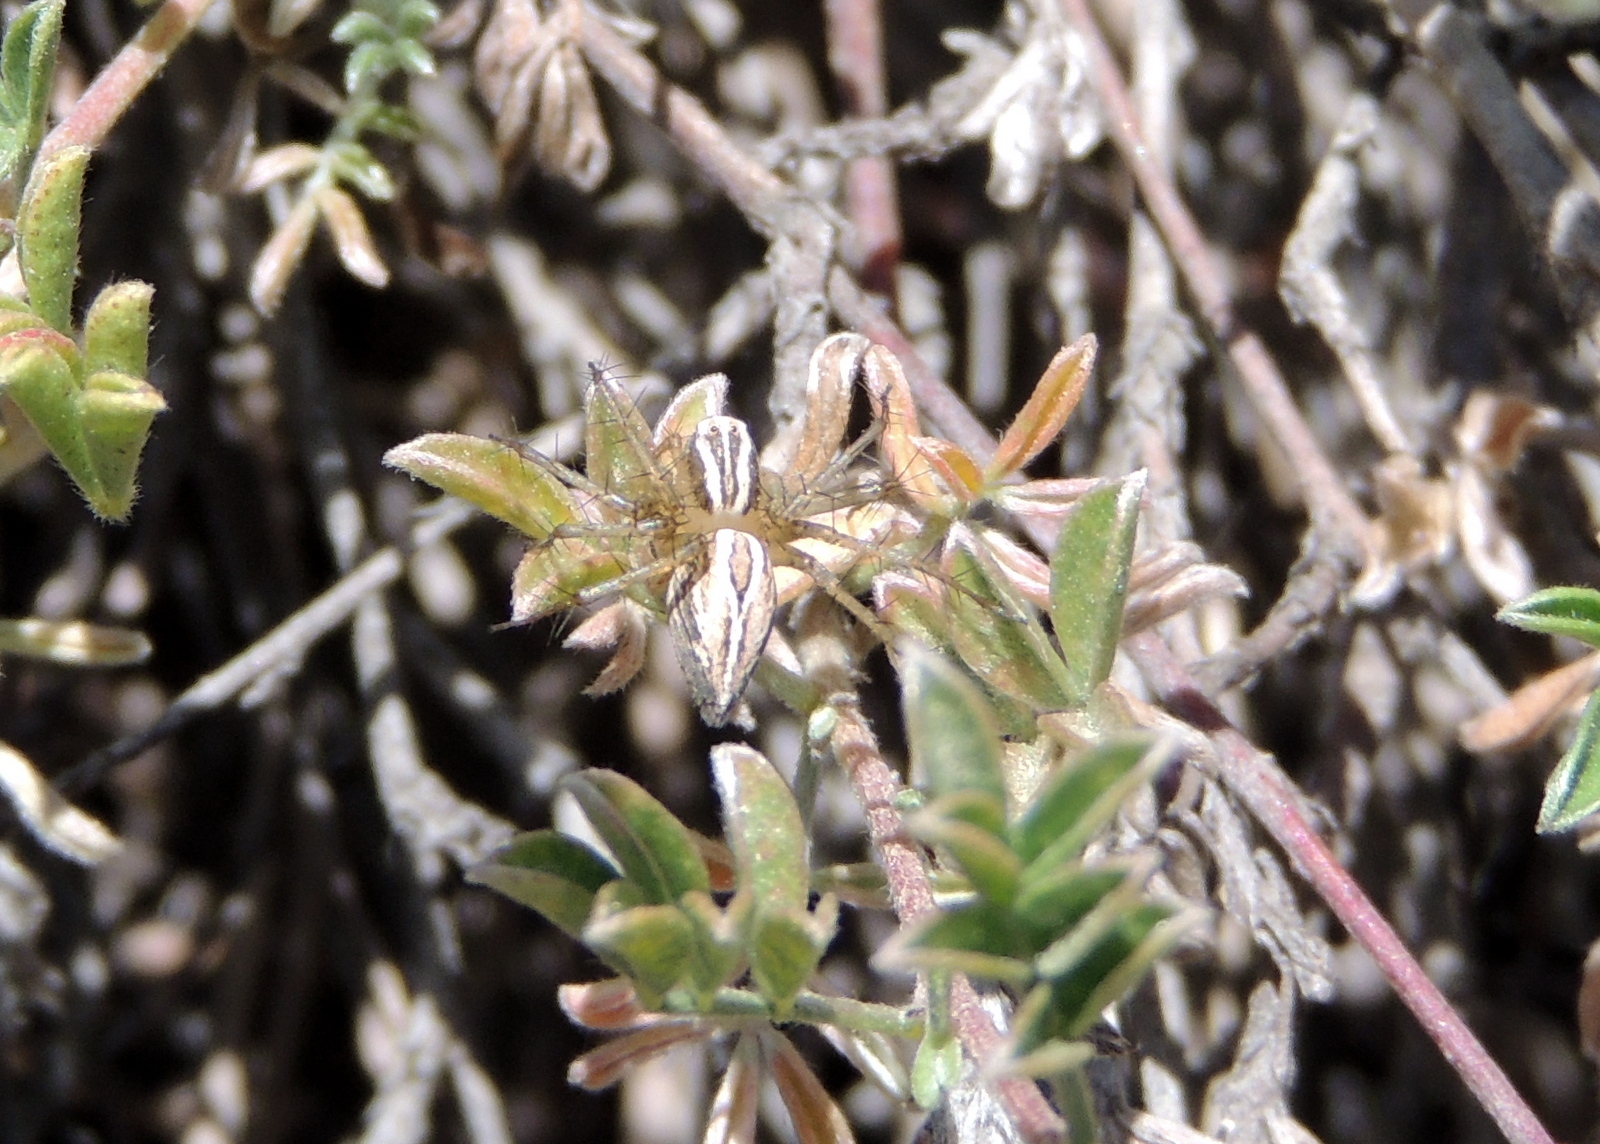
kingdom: Animalia
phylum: Arthropoda
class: Arachnida
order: Araneae
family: Oxyopidae
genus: Oxyopes
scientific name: Oxyopes salticus
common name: Lynx spiders
